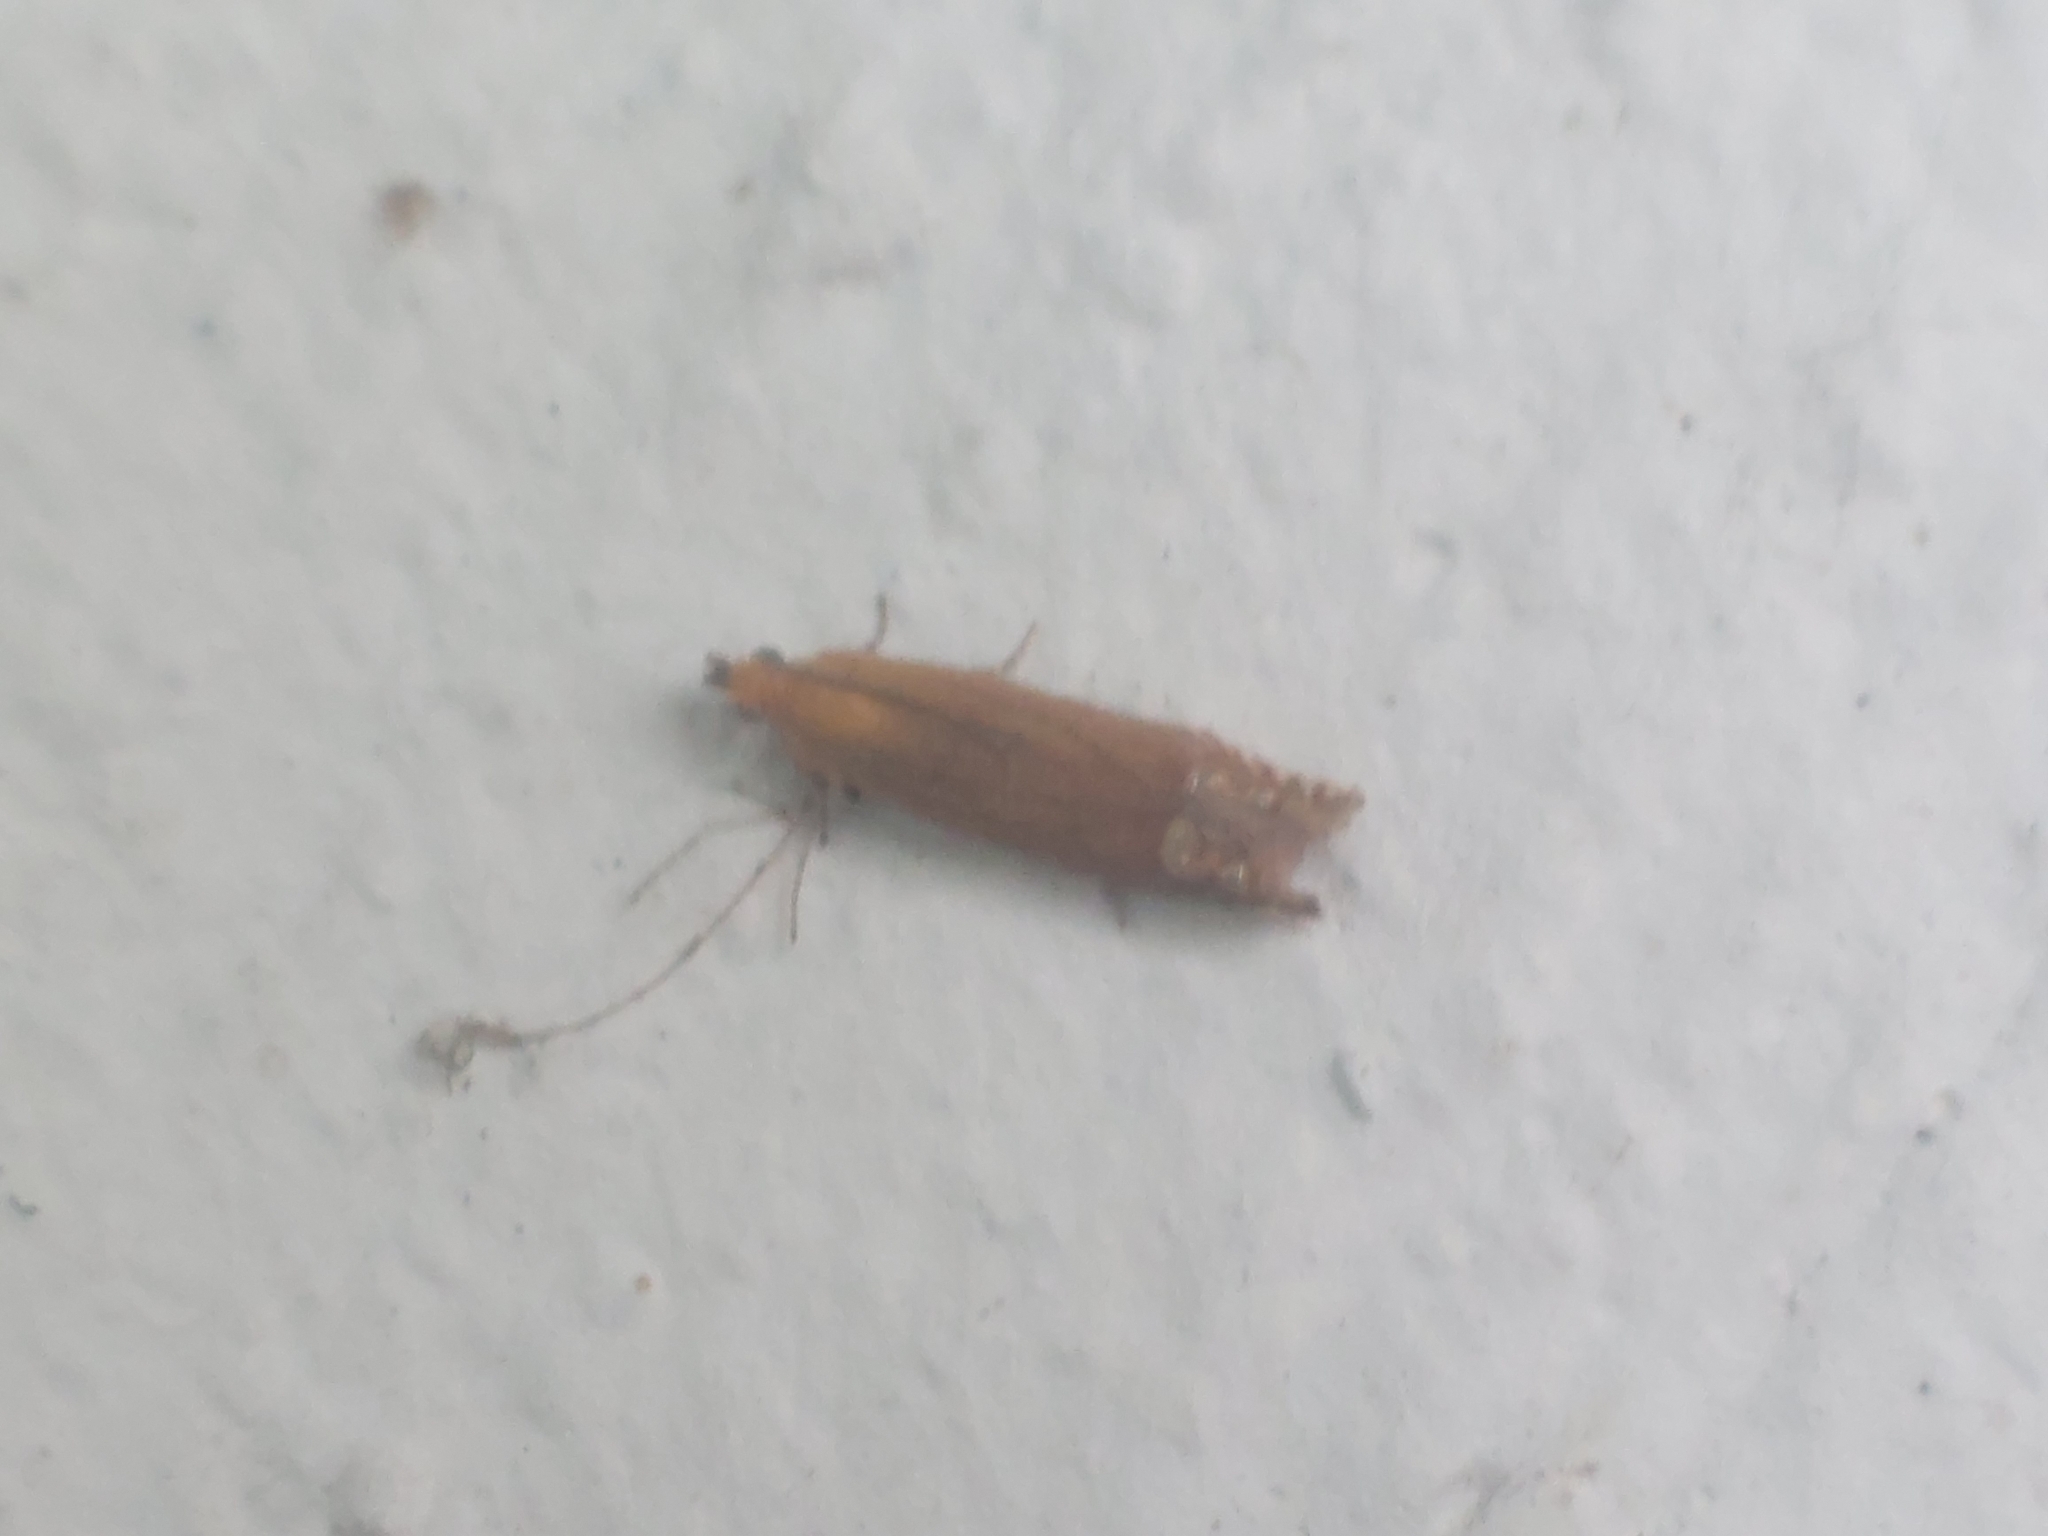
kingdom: Animalia
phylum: Arthropoda
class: Insecta
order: Lepidoptera
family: Tortricidae
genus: Lathronympha
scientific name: Lathronympha strigana
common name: Red piercer
